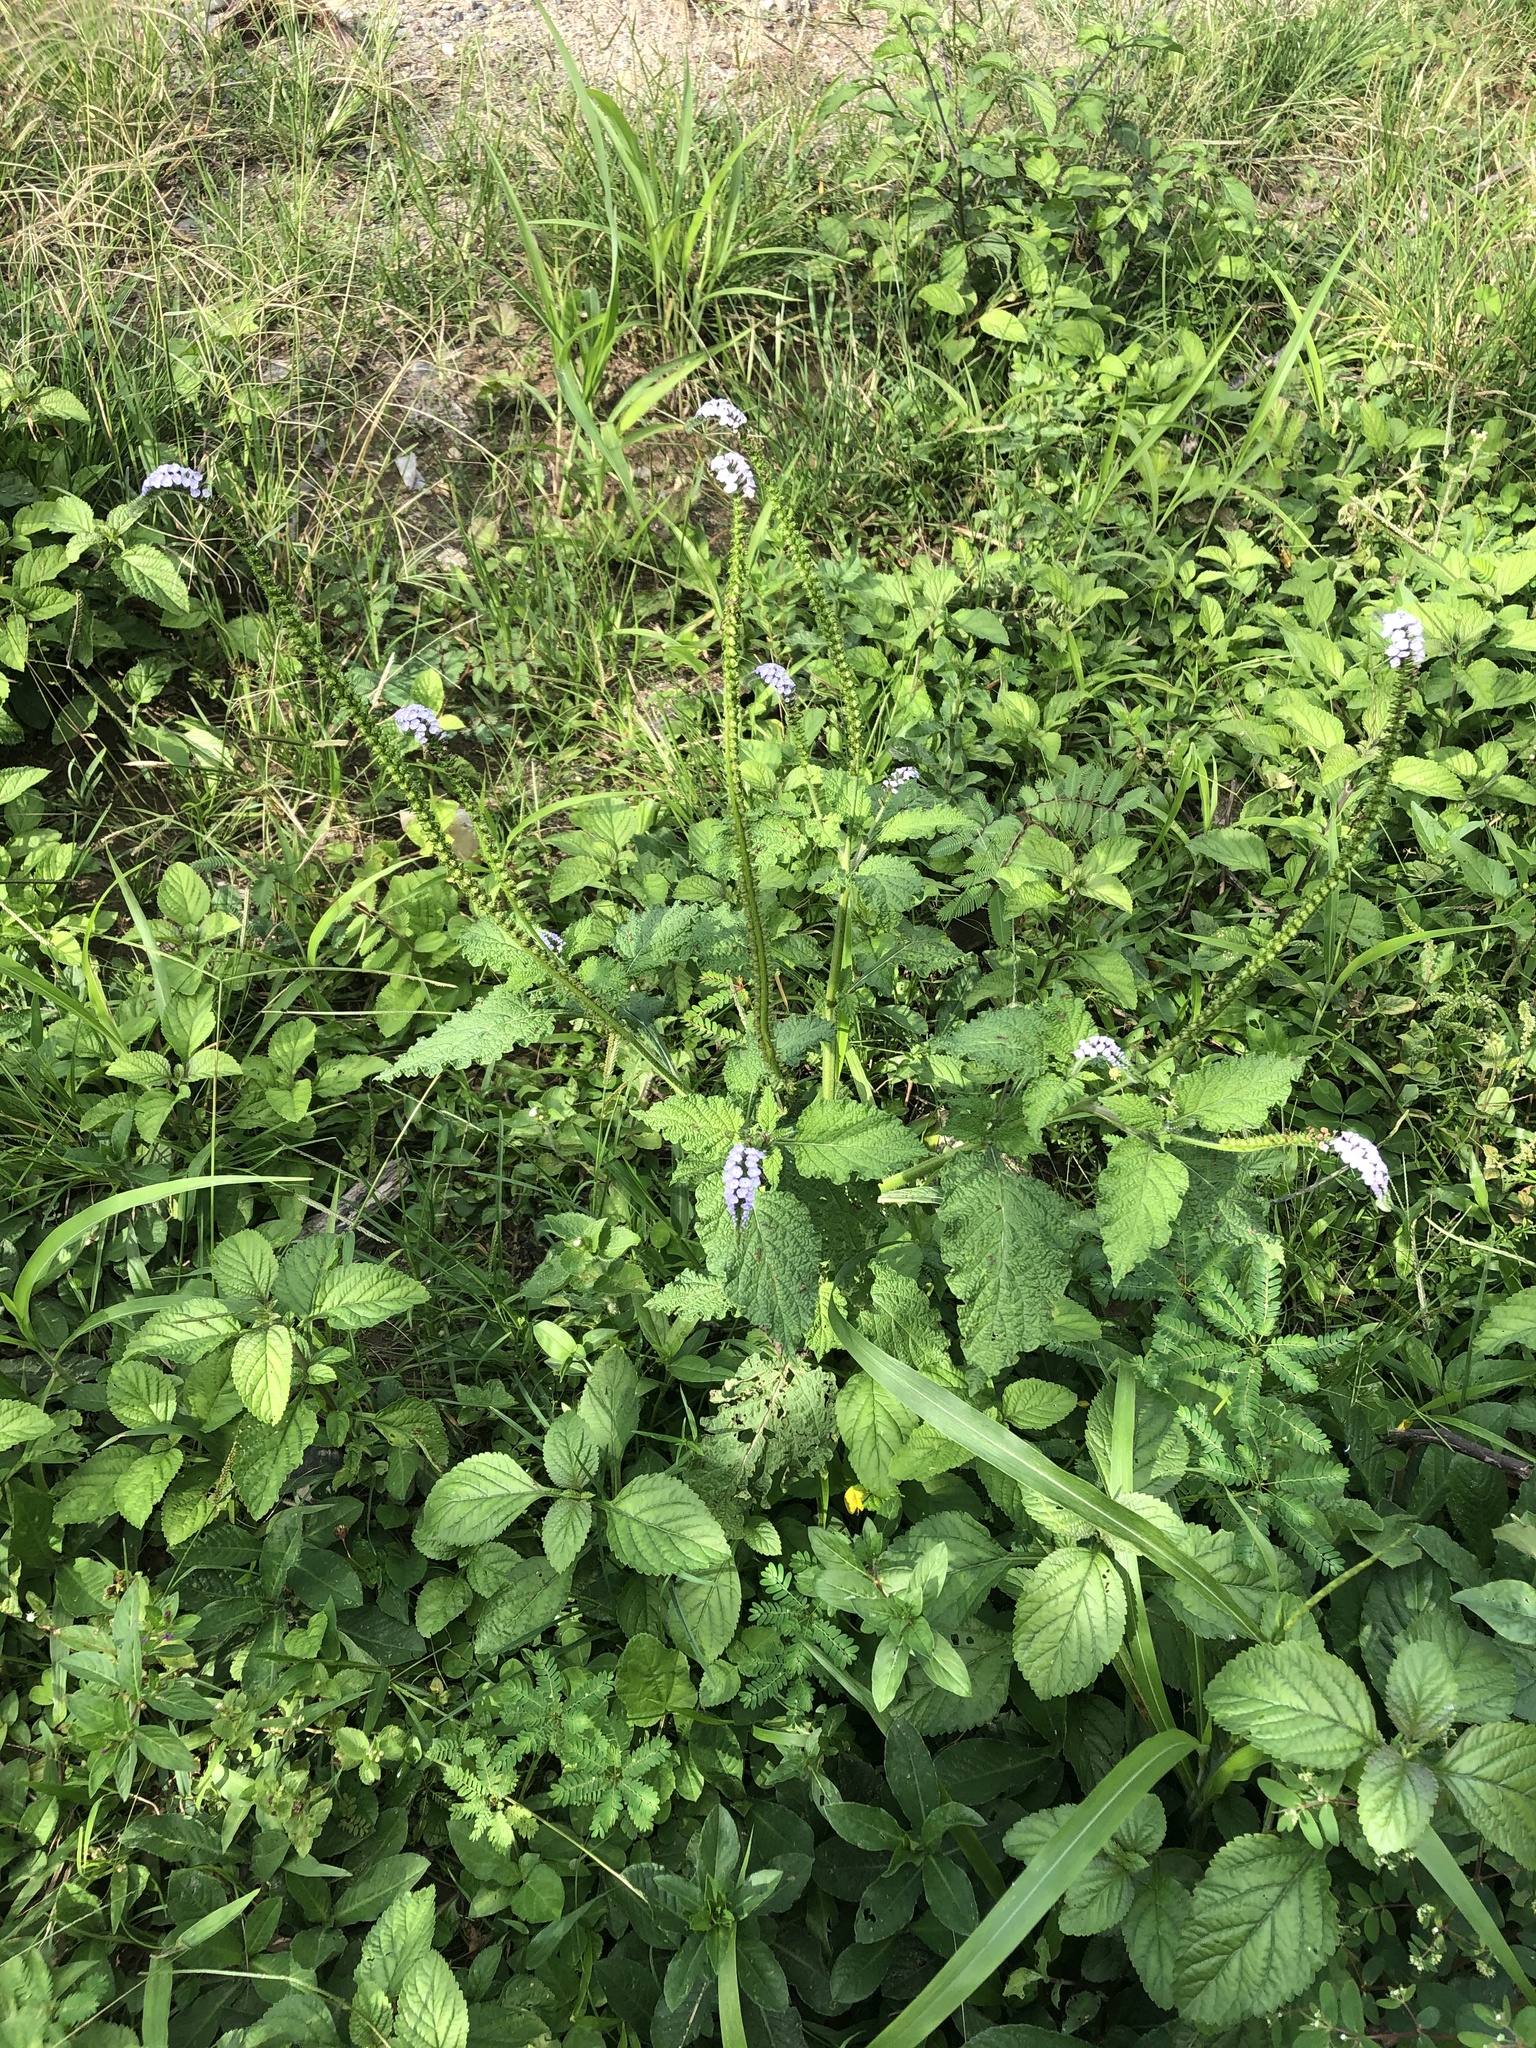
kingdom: Plantae
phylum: Tracheophyta
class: Magnoliopsida
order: Boraginales
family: Heliotropiaceae
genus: Heliotropium
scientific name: Heliotropium indicum
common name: Indian heliotrope
